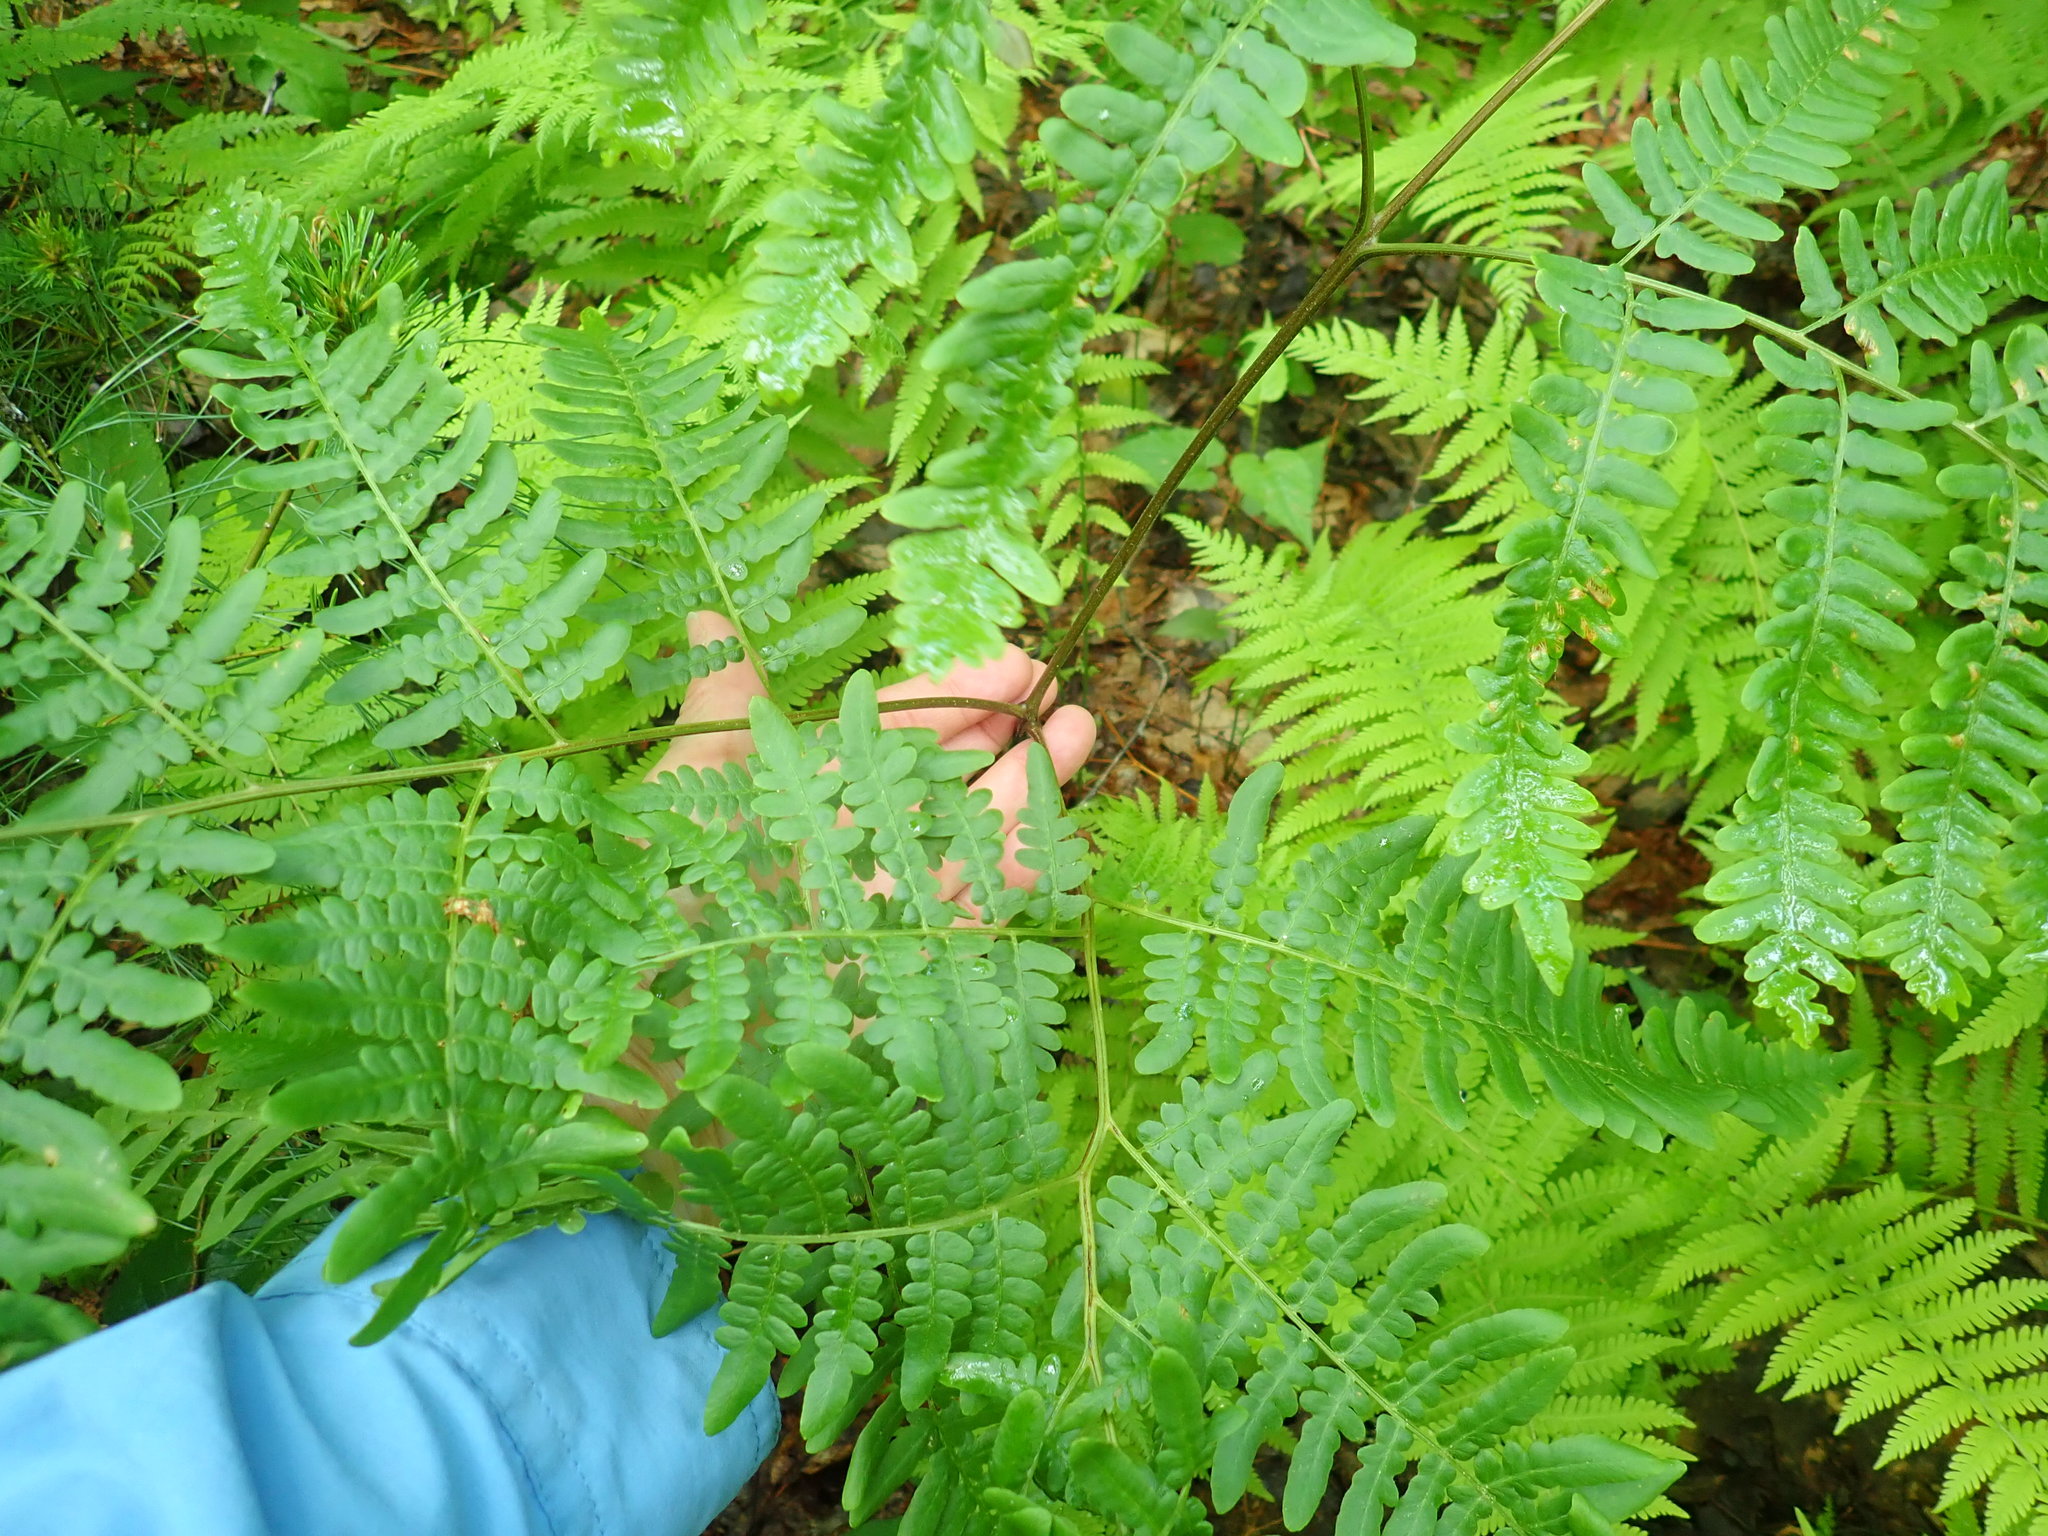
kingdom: Plantae
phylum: Tracheophyta
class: Polypodiopsida
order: Polypodiales
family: Dennstaedtiaceae
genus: Pteridium
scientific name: Pteridium aquilinum
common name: Bracken
